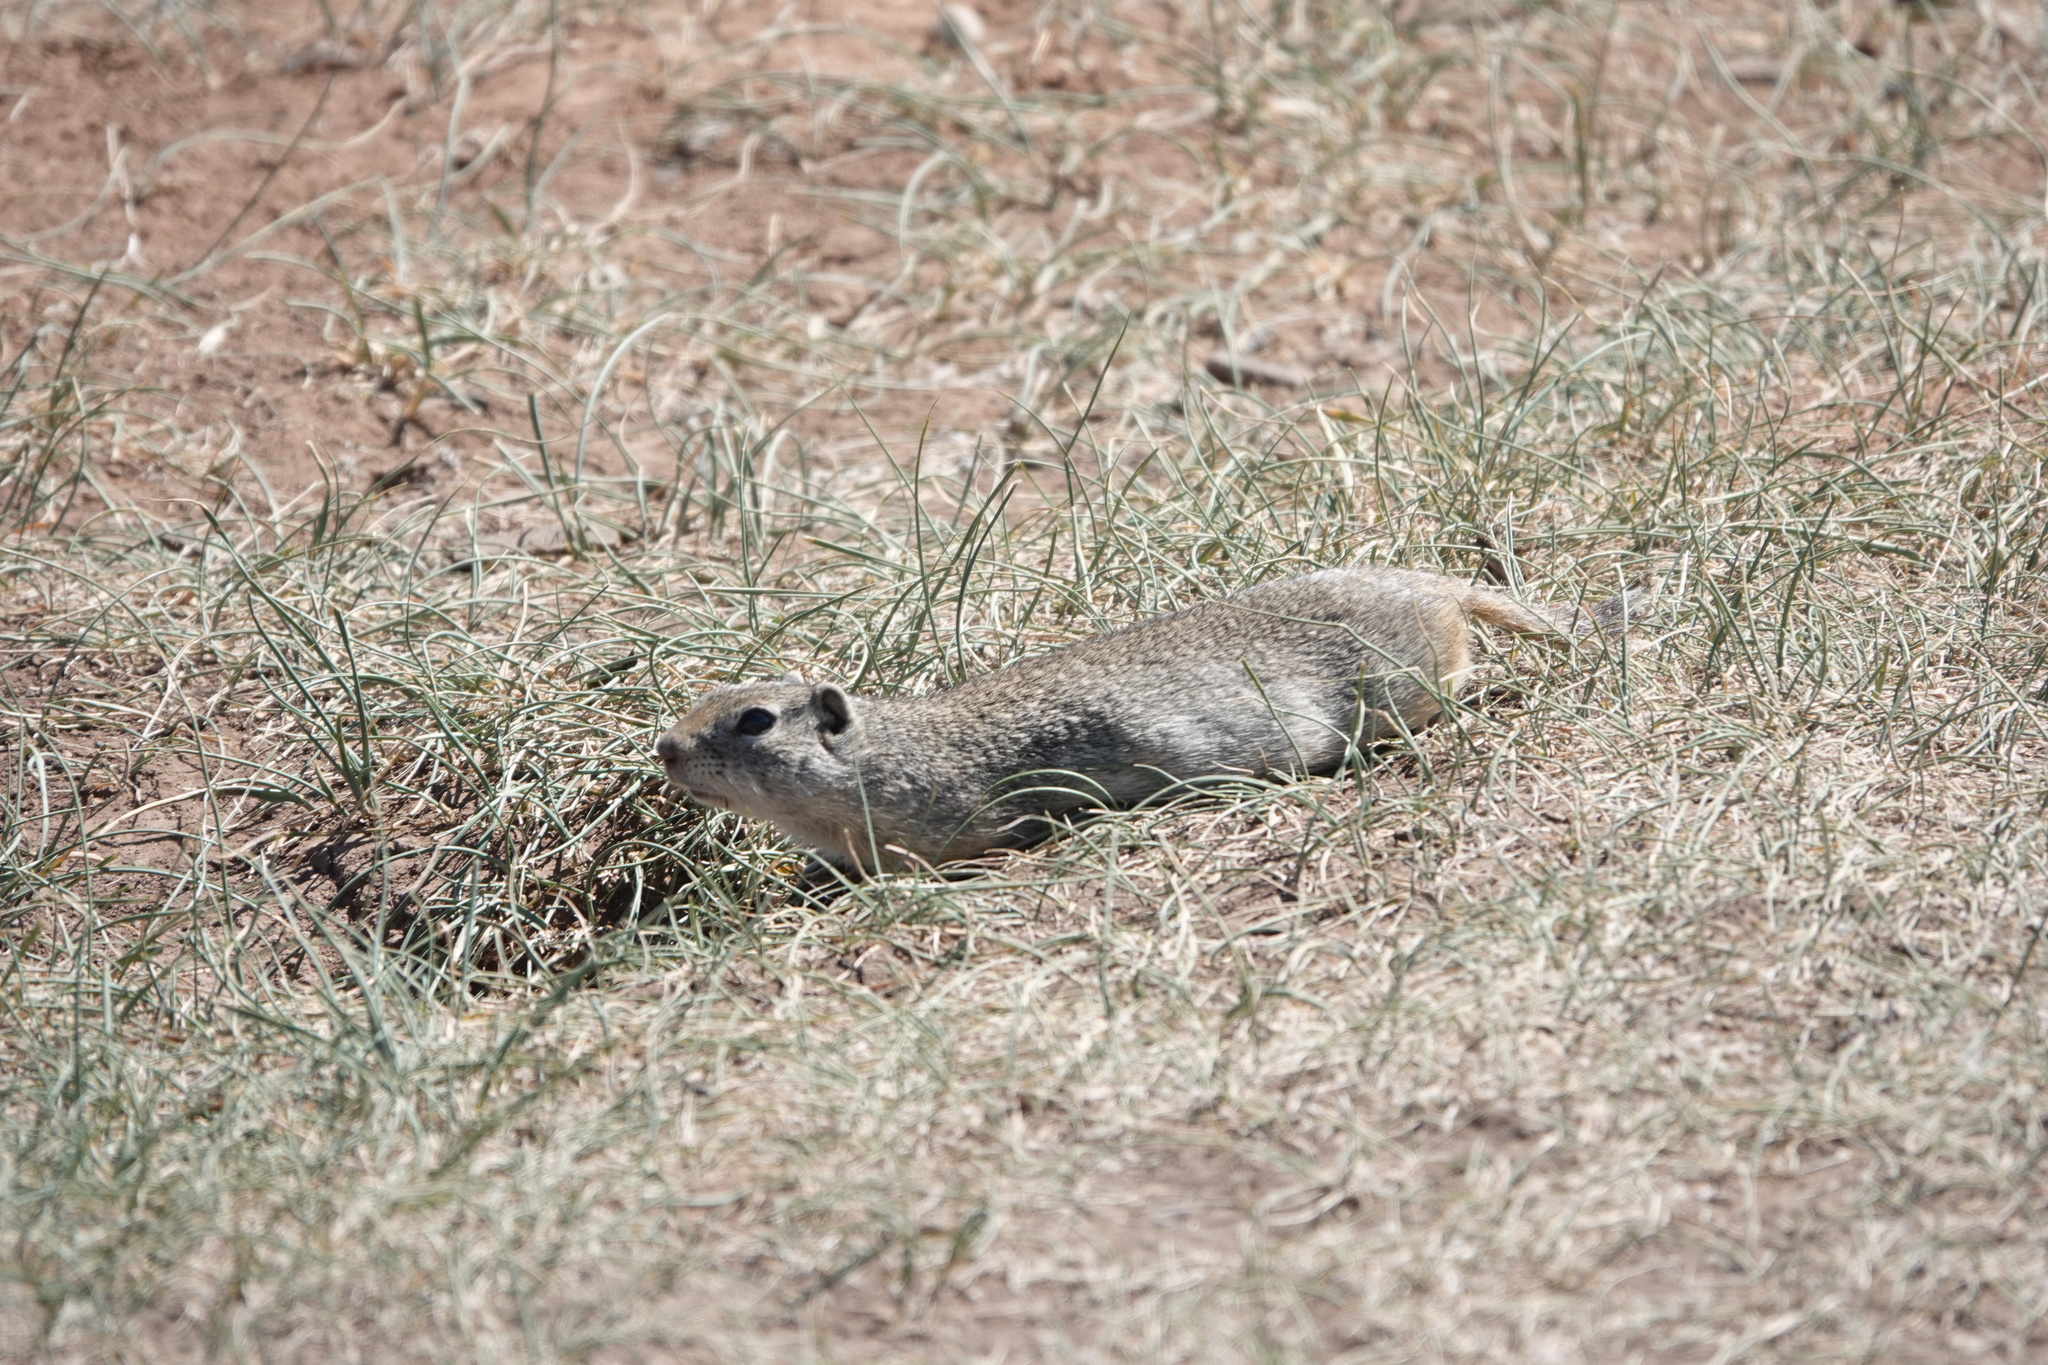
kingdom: Animalia
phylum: Chordata
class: Mammalia
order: Rodentia
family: Sciuridae
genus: Urocitellus
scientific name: Urocitellus elegans
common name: Wyoming ground squirrel
